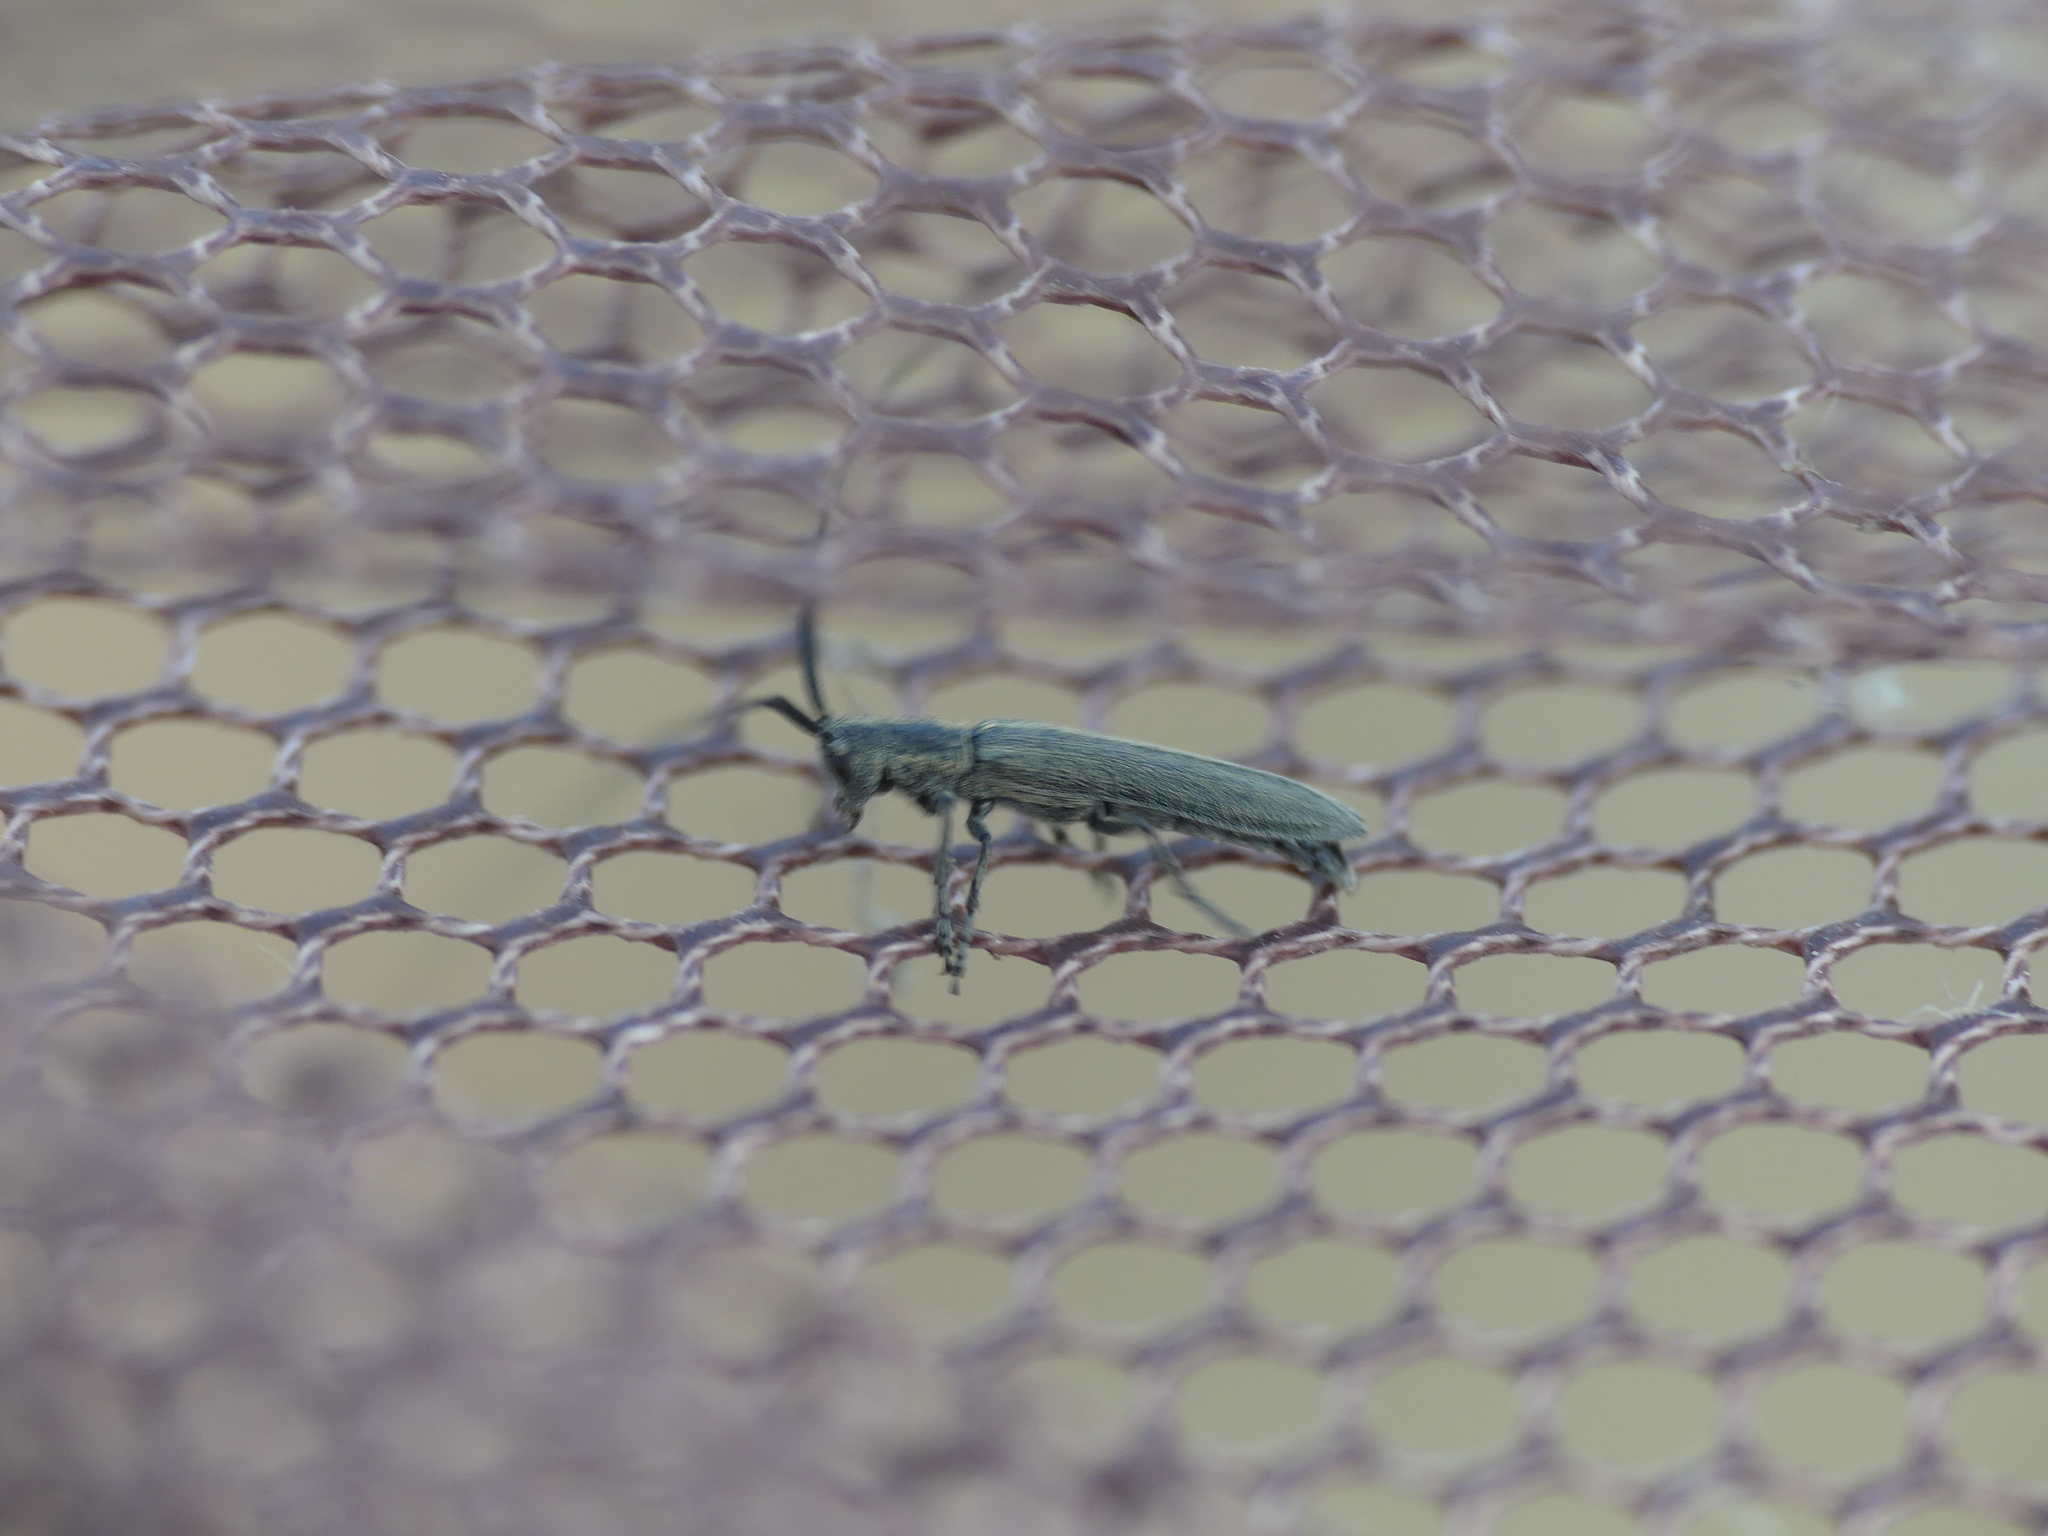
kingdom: Animalia
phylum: Arthropoda
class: Insecta
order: Coleoptera
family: Cerambycidae
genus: Calamobius
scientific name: Calamobius filum
